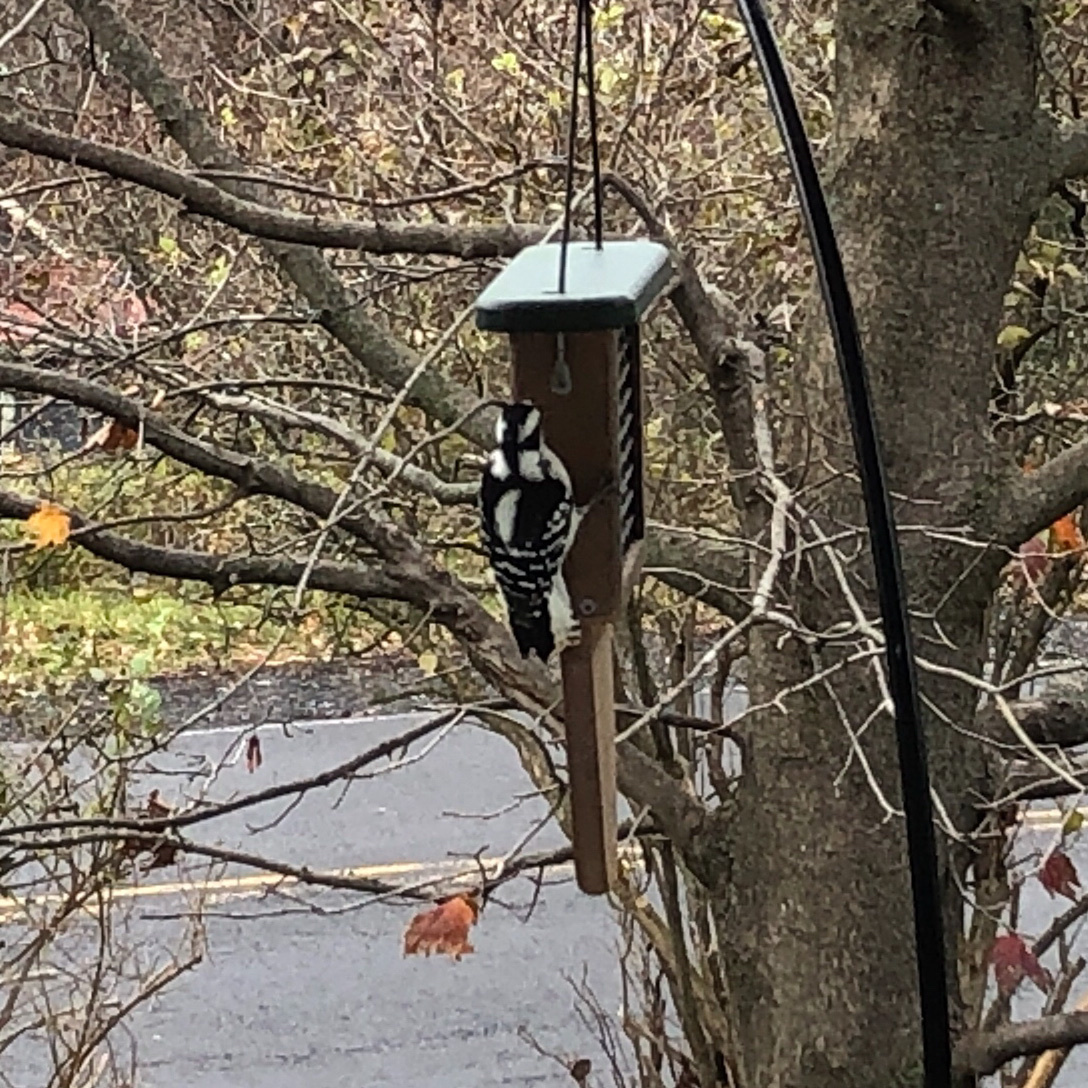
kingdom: Animalia
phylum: Chordata
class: Aves
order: Piciformes
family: Picidae
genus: Dryobates
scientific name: Dryobates pubescens
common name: Downy woodpecker
